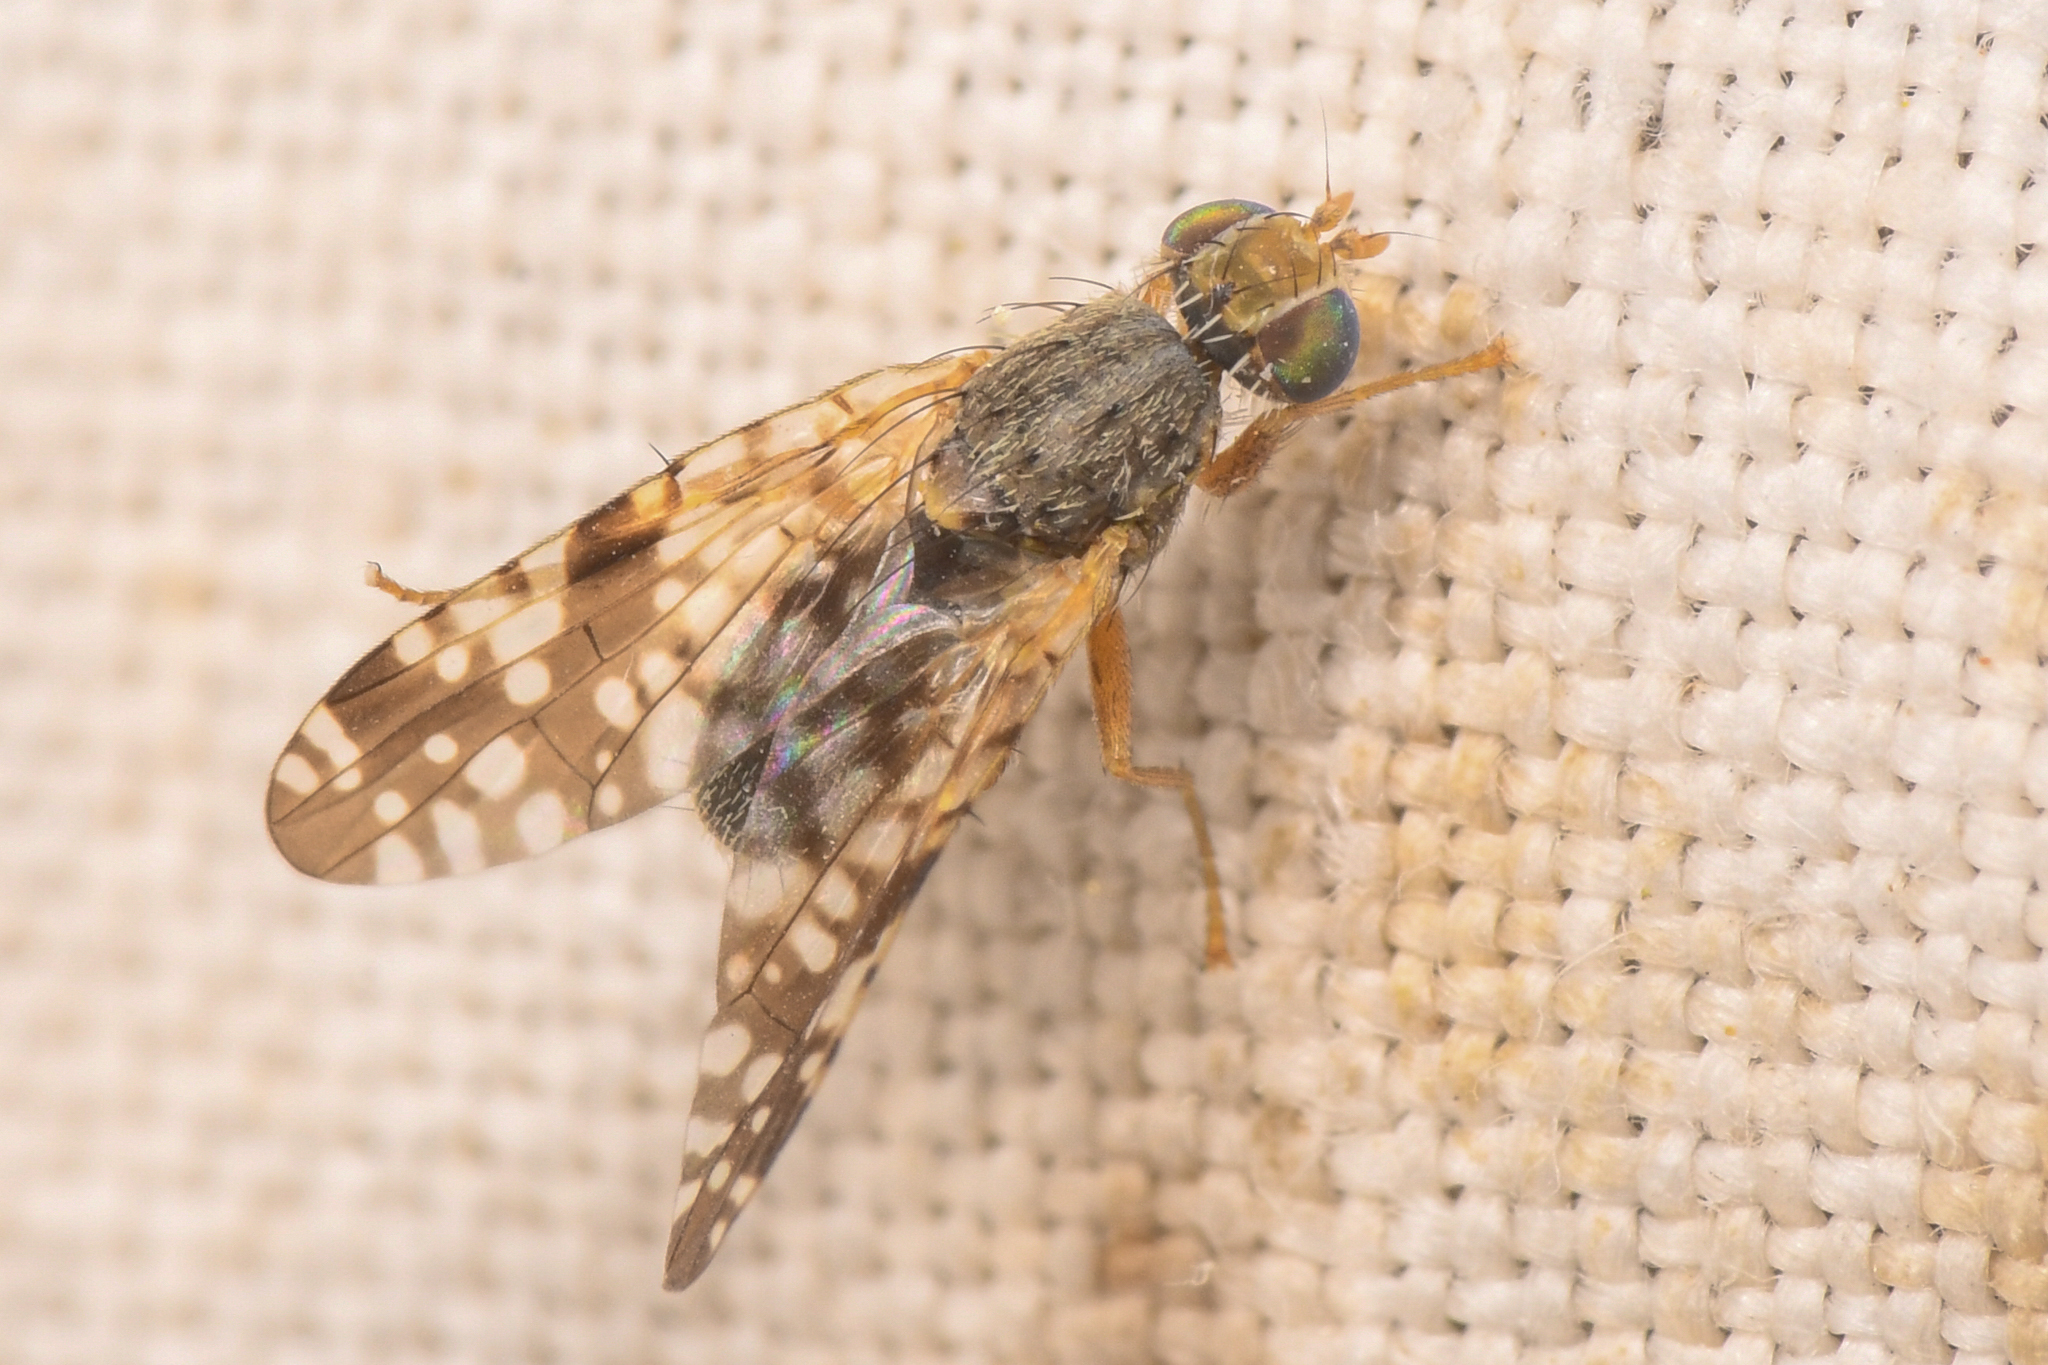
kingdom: Animalia
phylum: Arthropoda
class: Insecta
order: Diptera
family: Tephritidae
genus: Neotephritis
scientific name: Neotephritis finalis
